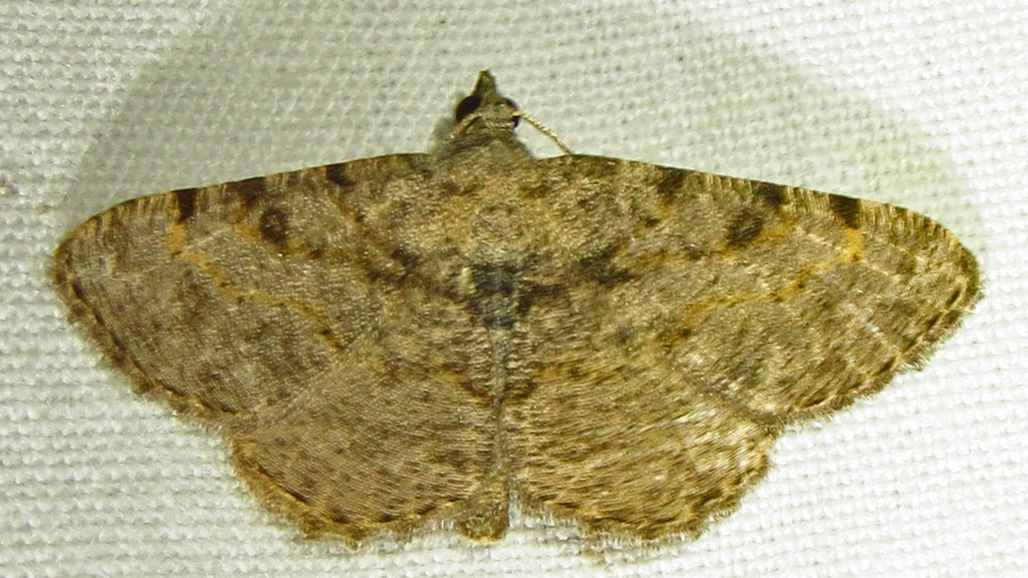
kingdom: Animalia
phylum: Arthropoda
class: Insecta
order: Lepidoptera
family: Geometridae
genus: Digrammia
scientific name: Digrammia gnophosaria
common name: Hollow-spotted angle
